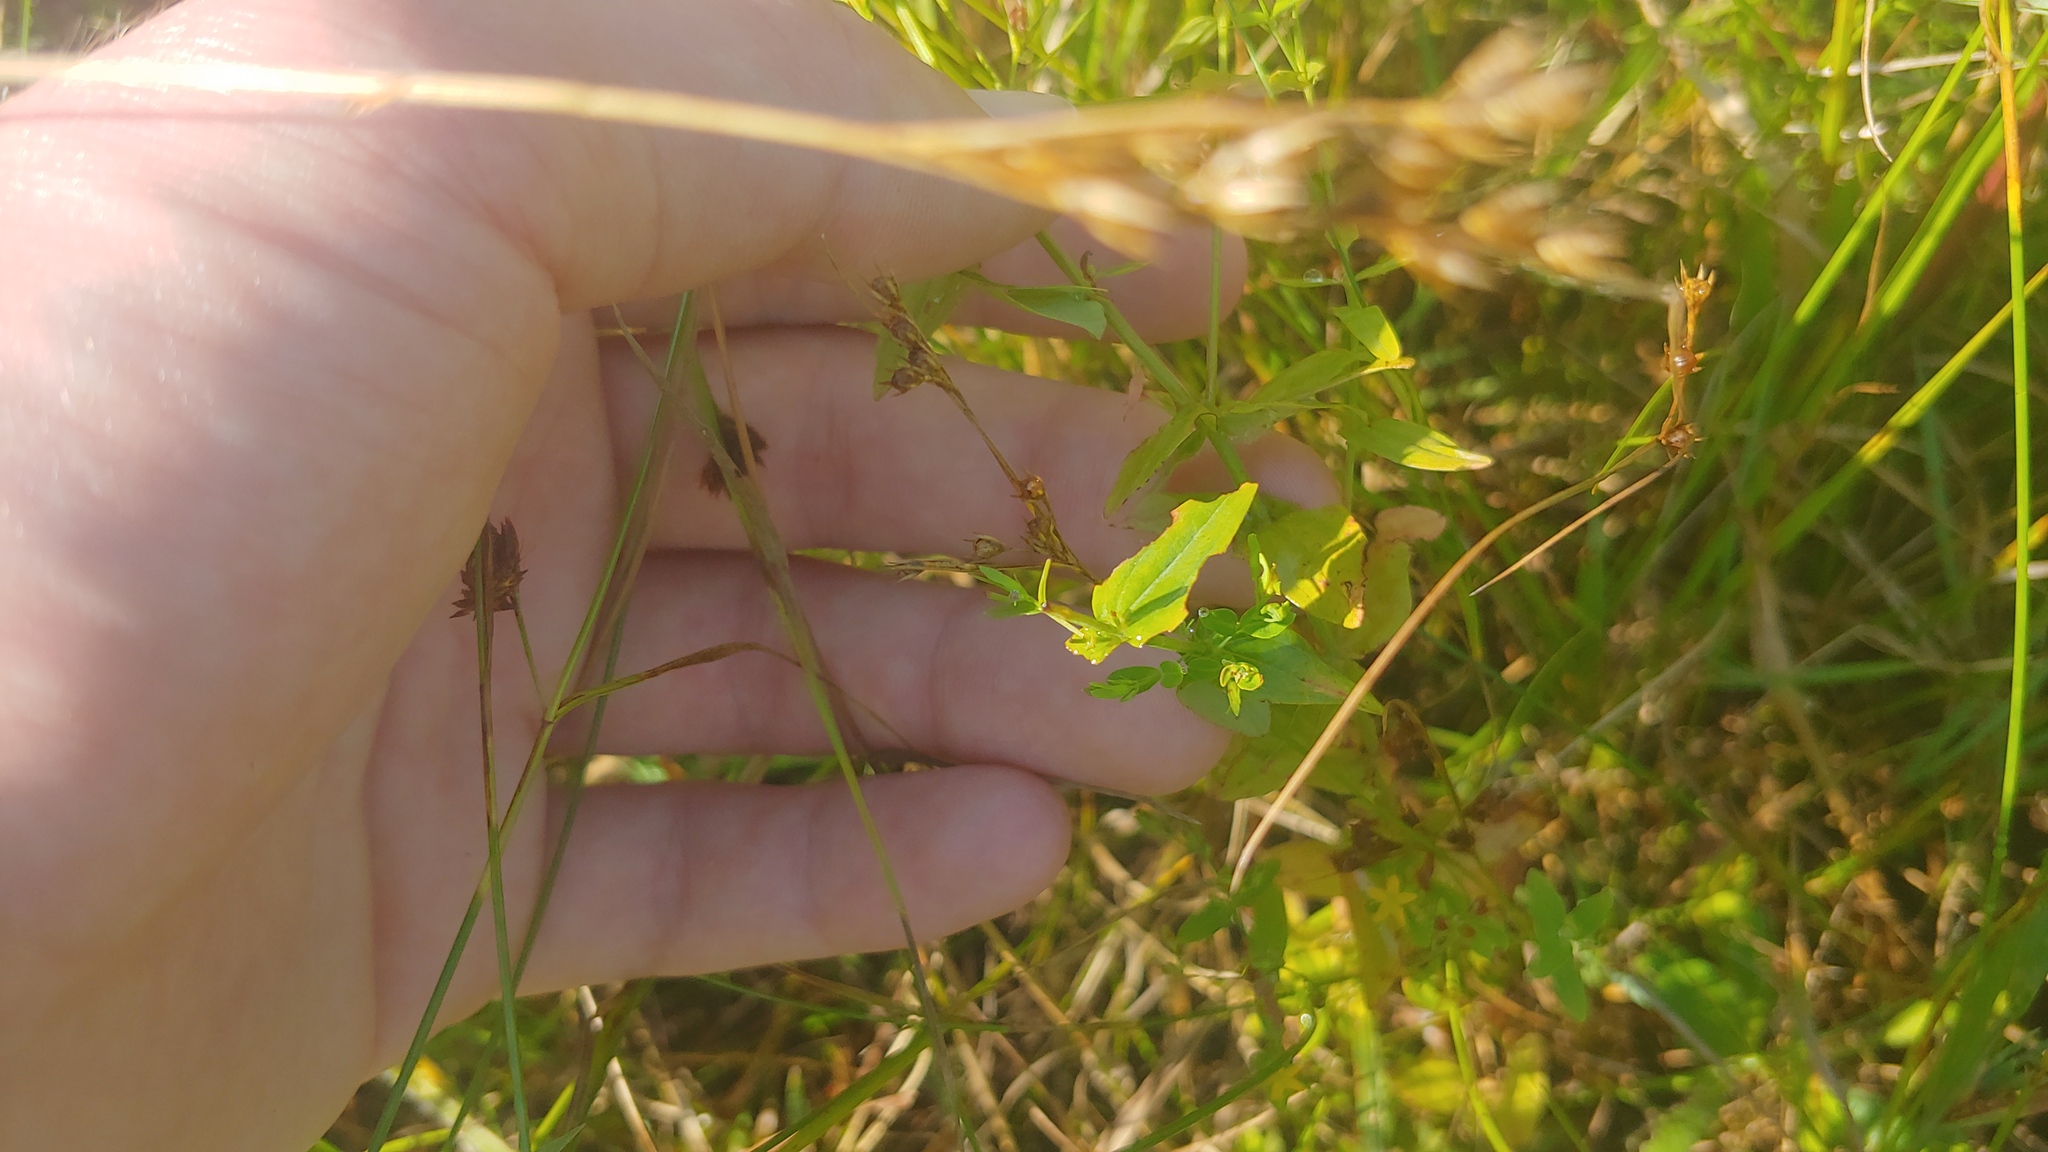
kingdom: Plantae
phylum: Tracheophyta
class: Magnoliopsida
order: Malpighiales
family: Hypericaceae
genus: Hypericum
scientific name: Hypericum mutilum
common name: Dwarf st. john's-wort
